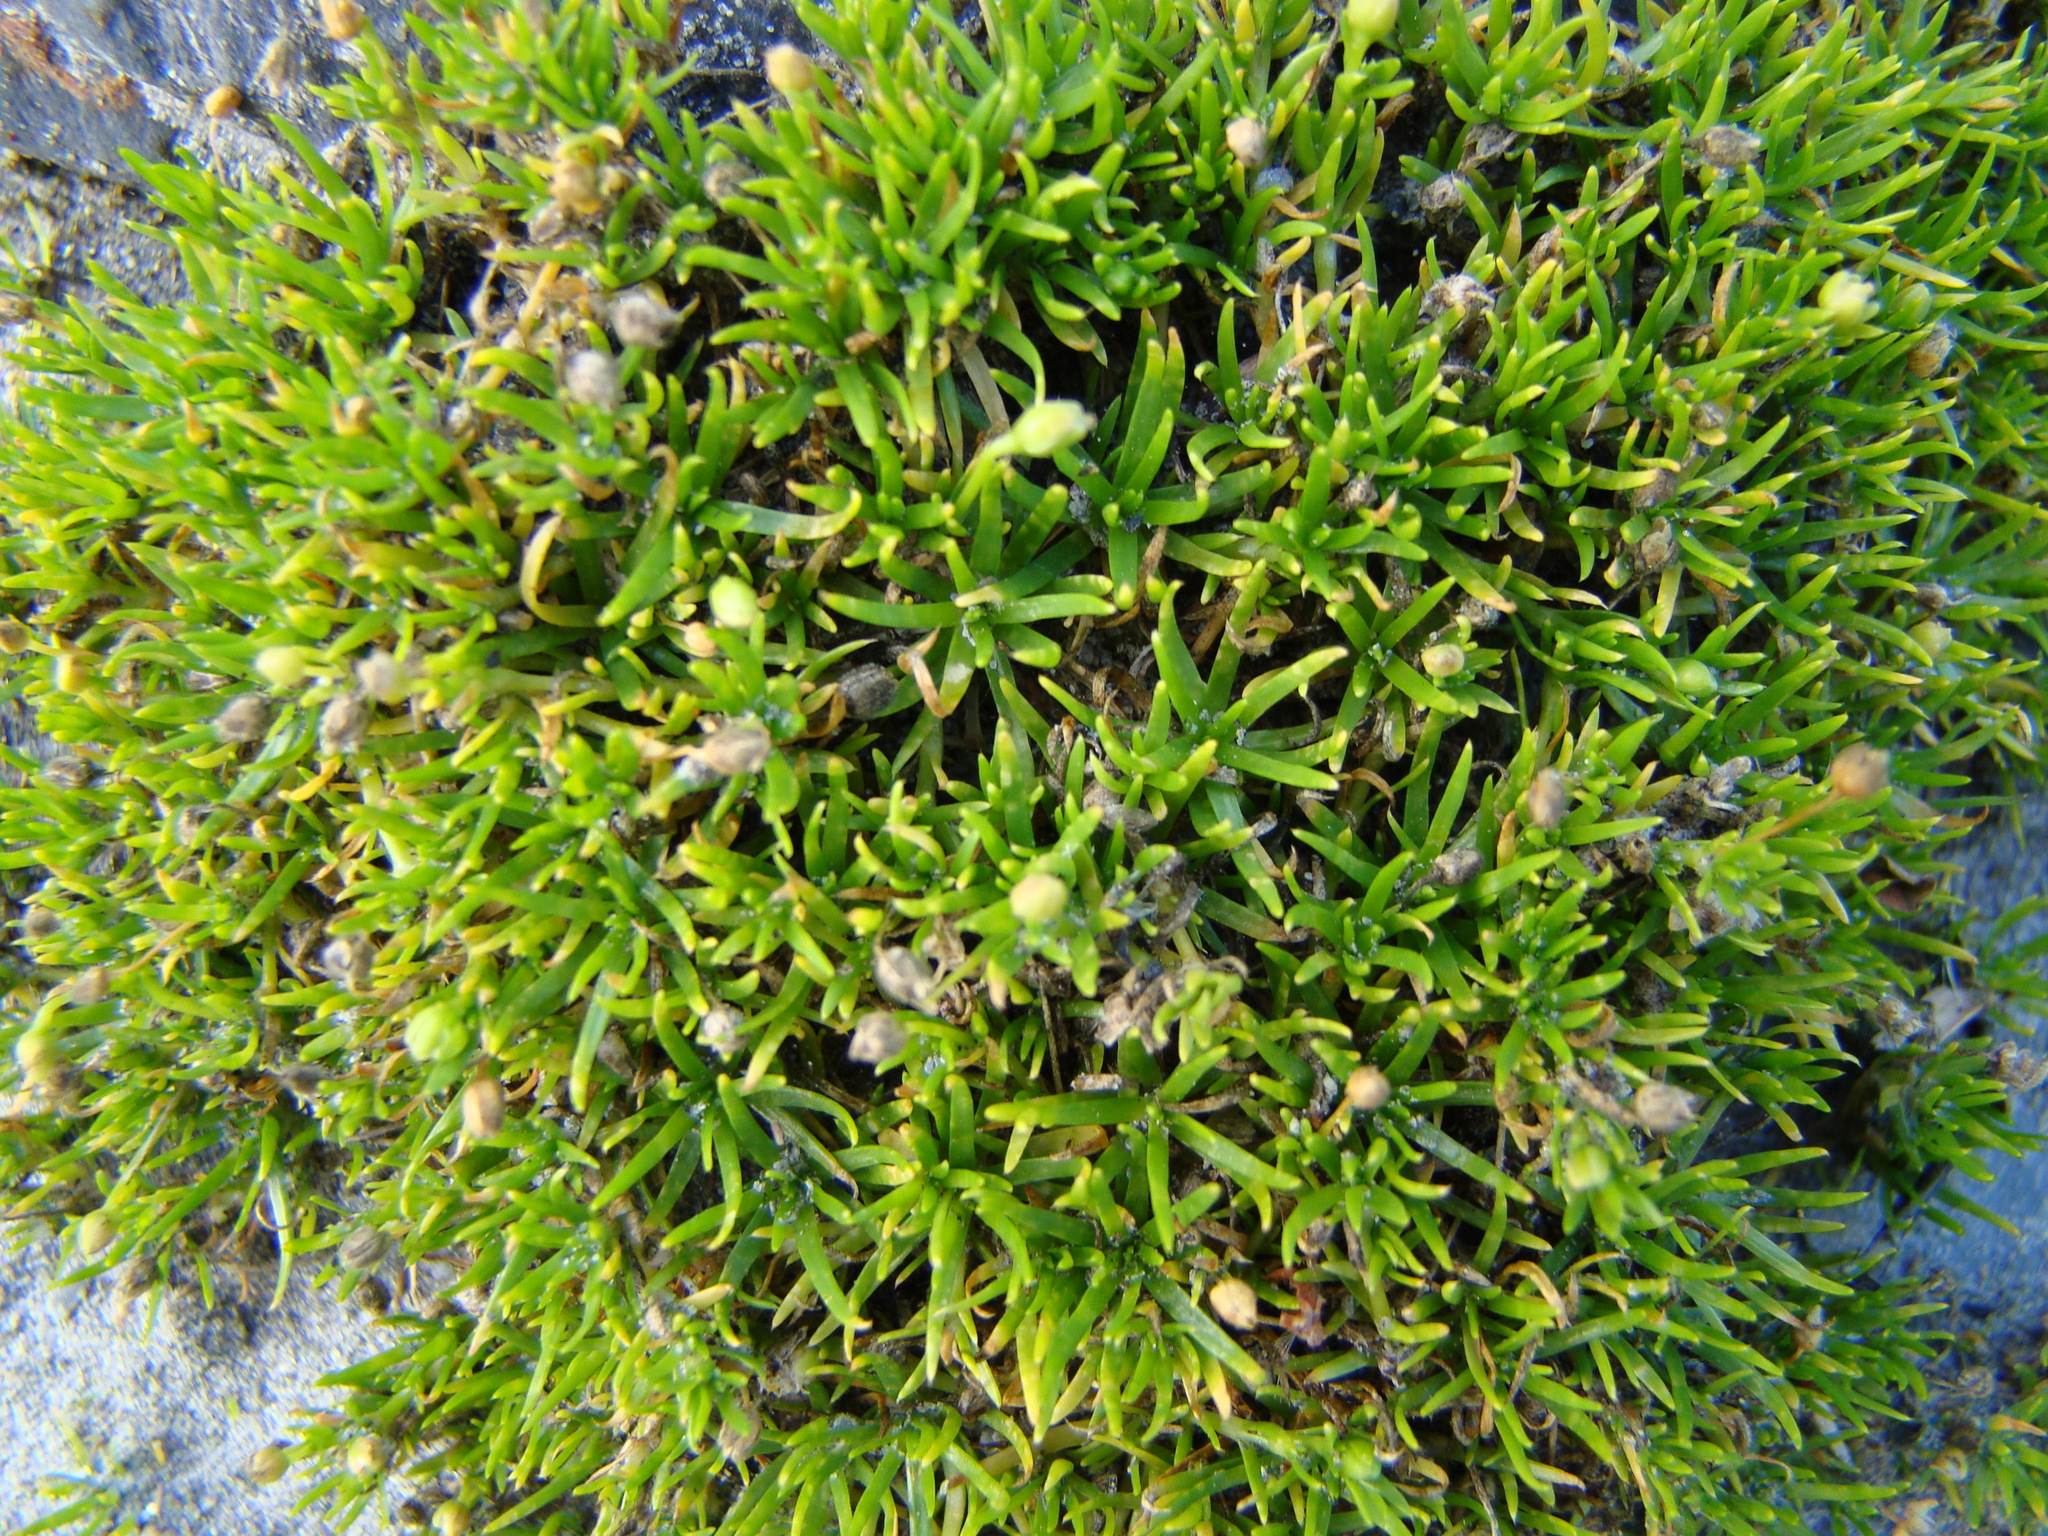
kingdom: Plantae
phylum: Tracheophyta
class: Magnoliopsida
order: Caryophyllales
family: Caryophyllaceae
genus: Sagina
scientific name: Sagina procumbens
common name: Procumbent pearlwort
